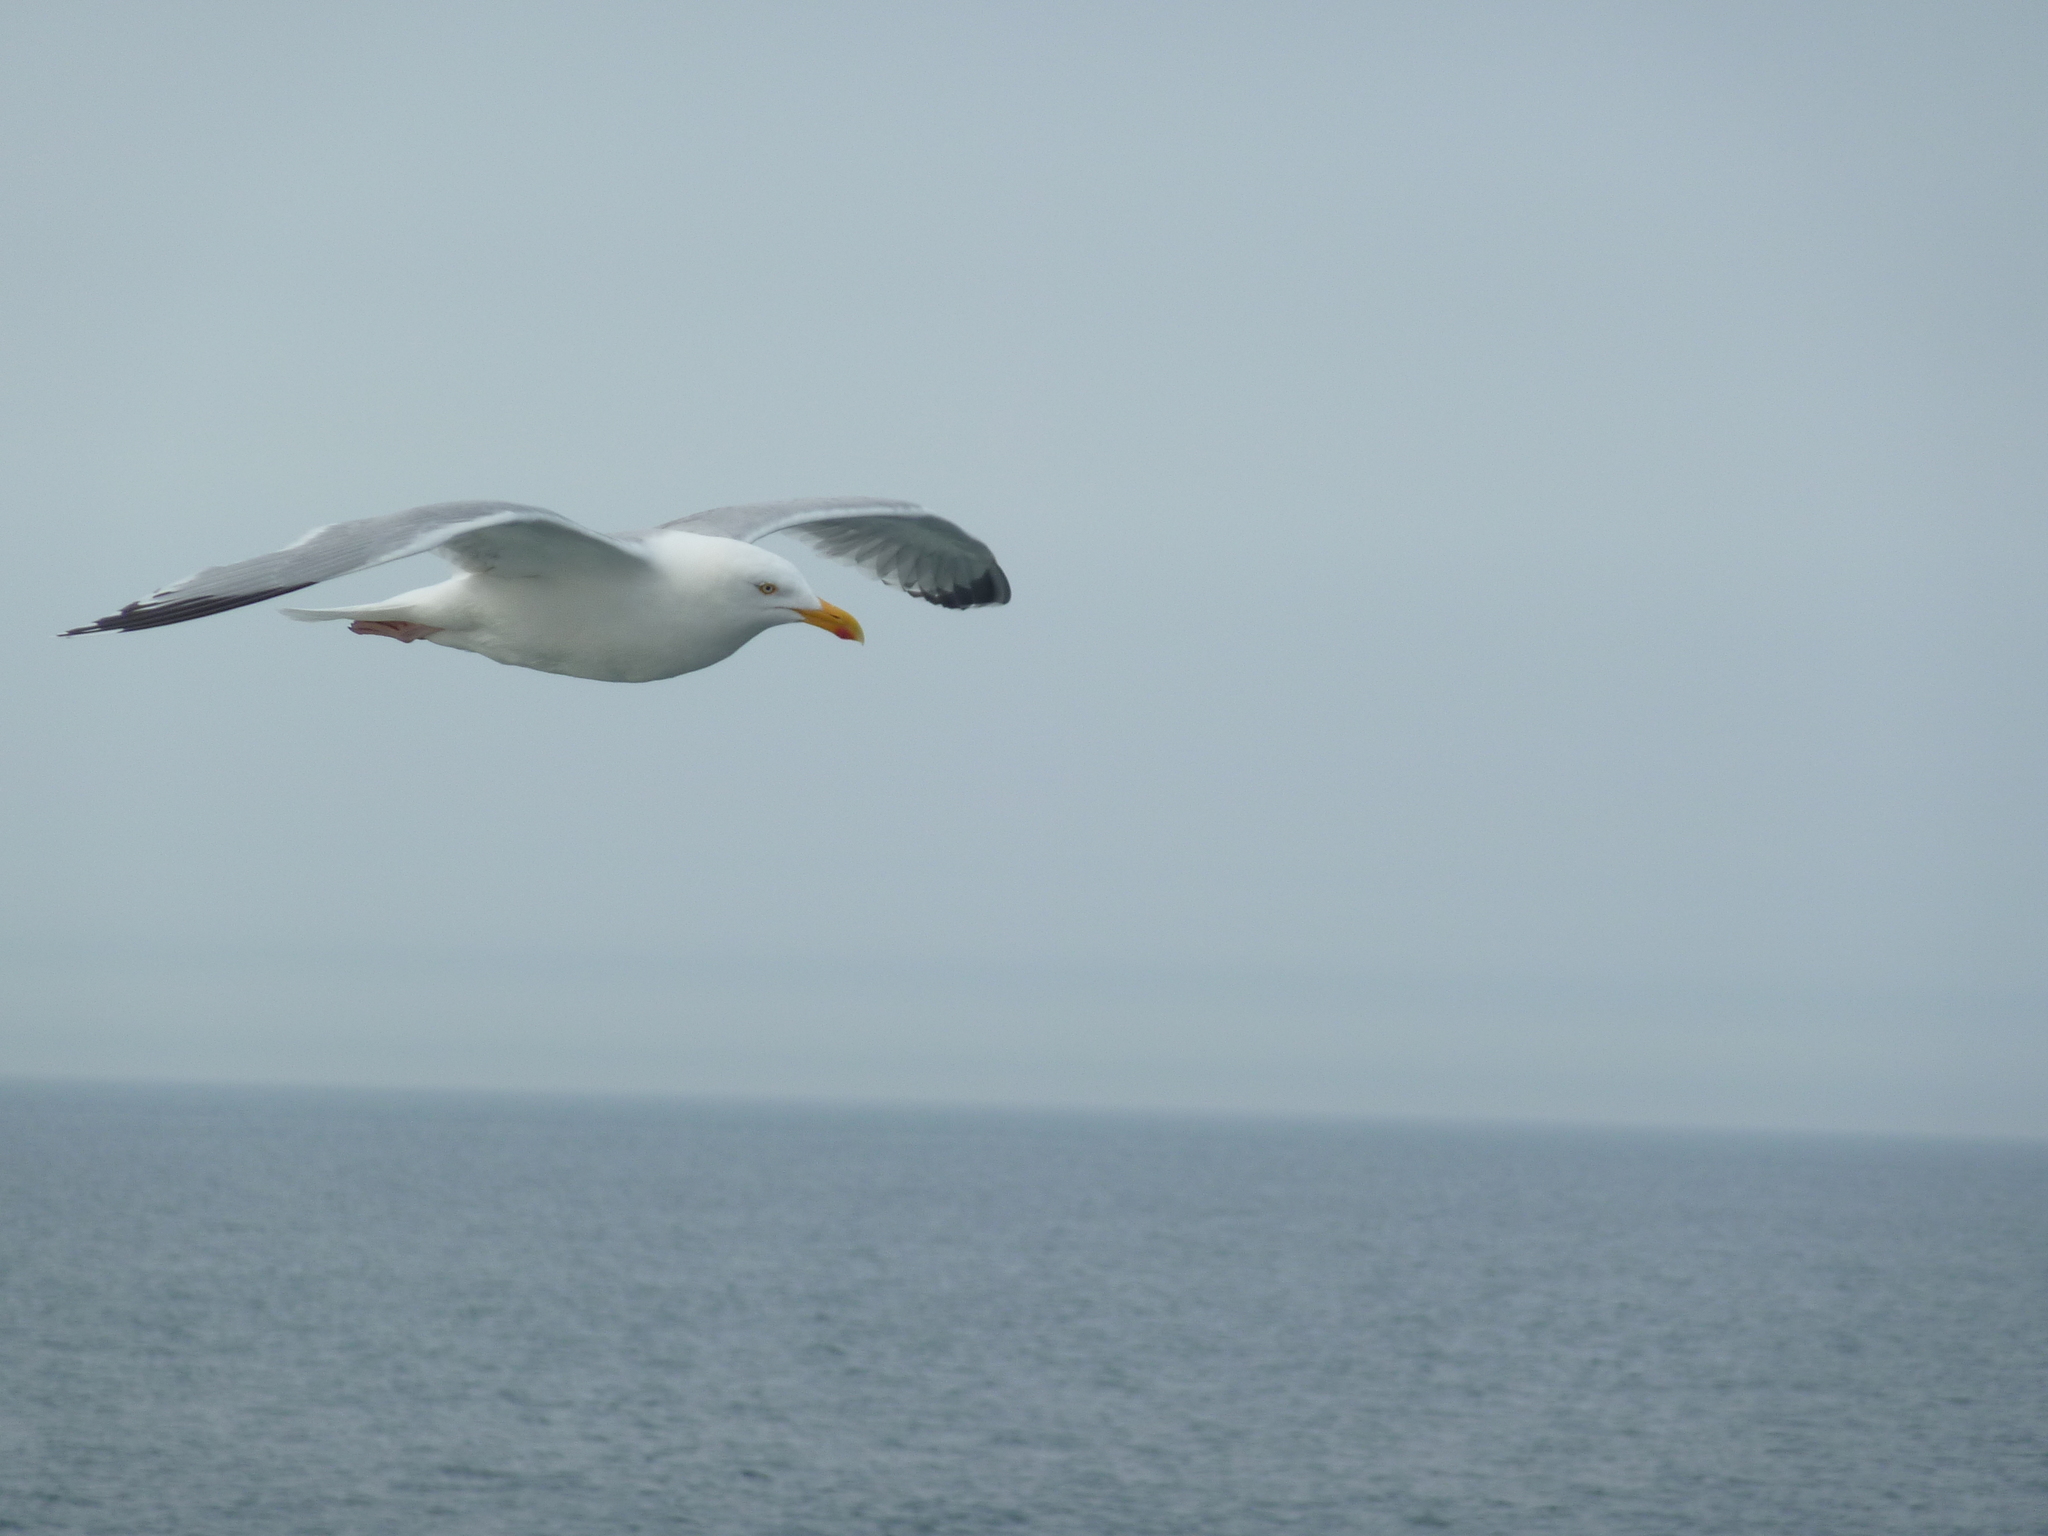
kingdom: Animalia
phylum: Chordata
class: Aves
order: Charadriiformes
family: Laridae
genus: Larus
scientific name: Larus argentatus
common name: Herring gull
